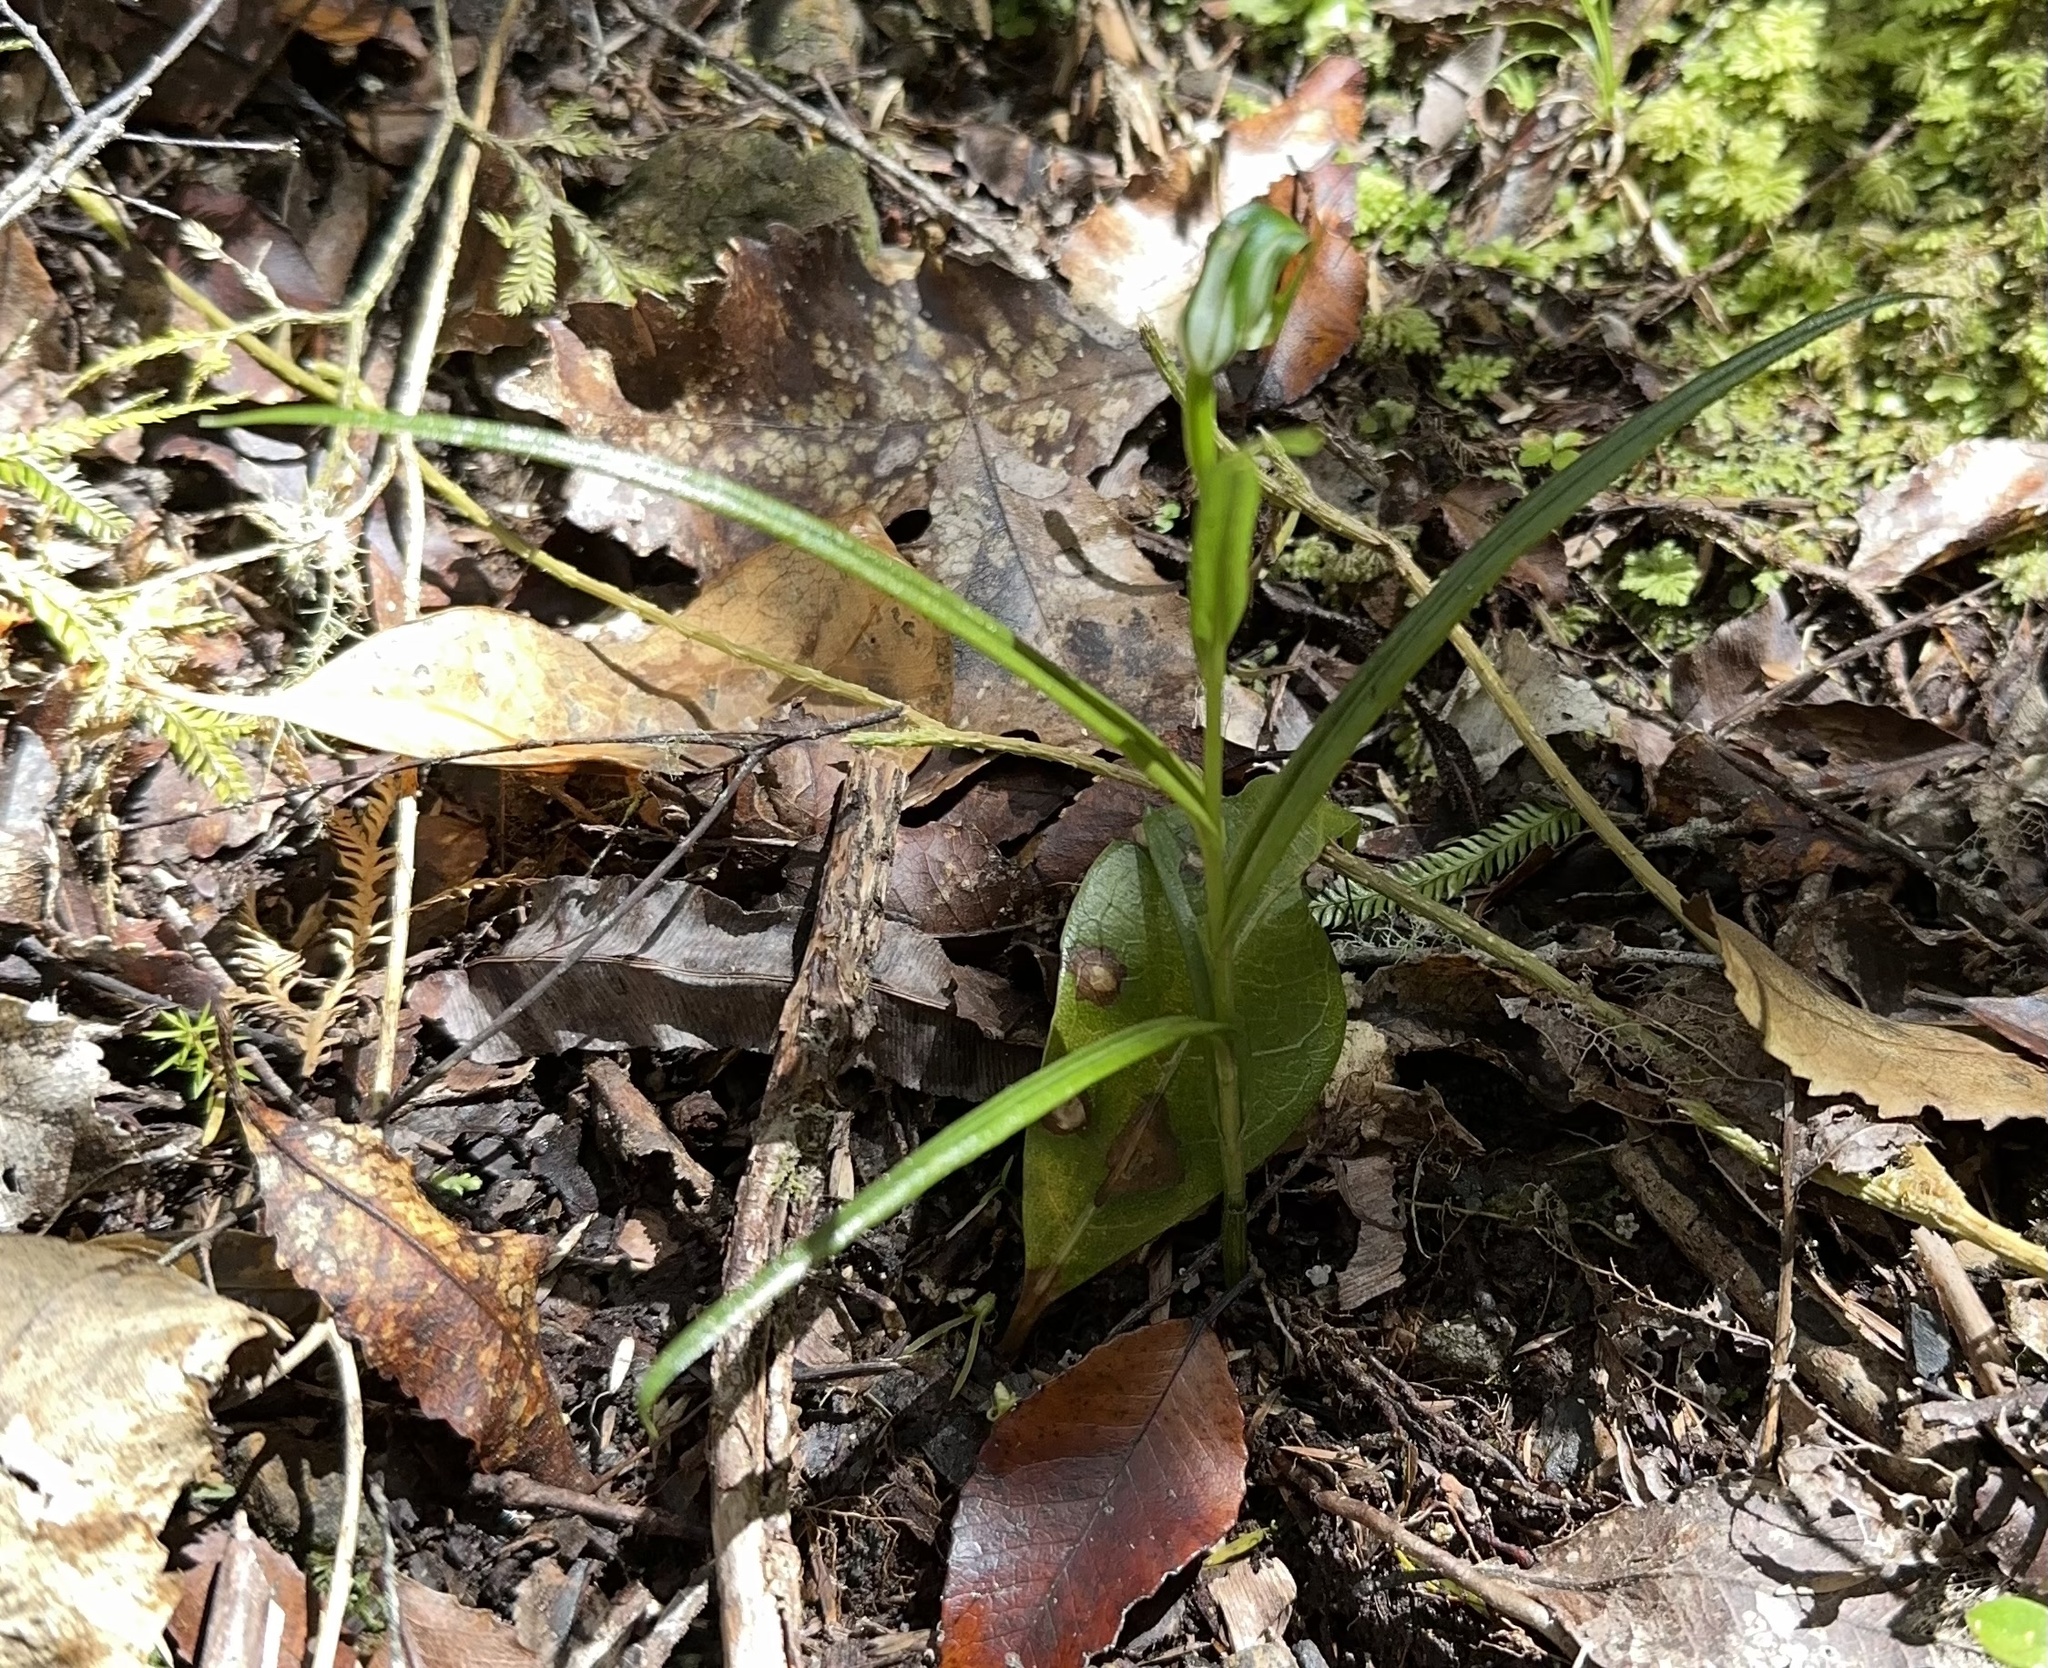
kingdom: Plantae
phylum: Tracheophyta
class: Liliopsida
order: Asparagales
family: Orchidaceae
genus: Pterostylis
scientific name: Pterostylis graminea
